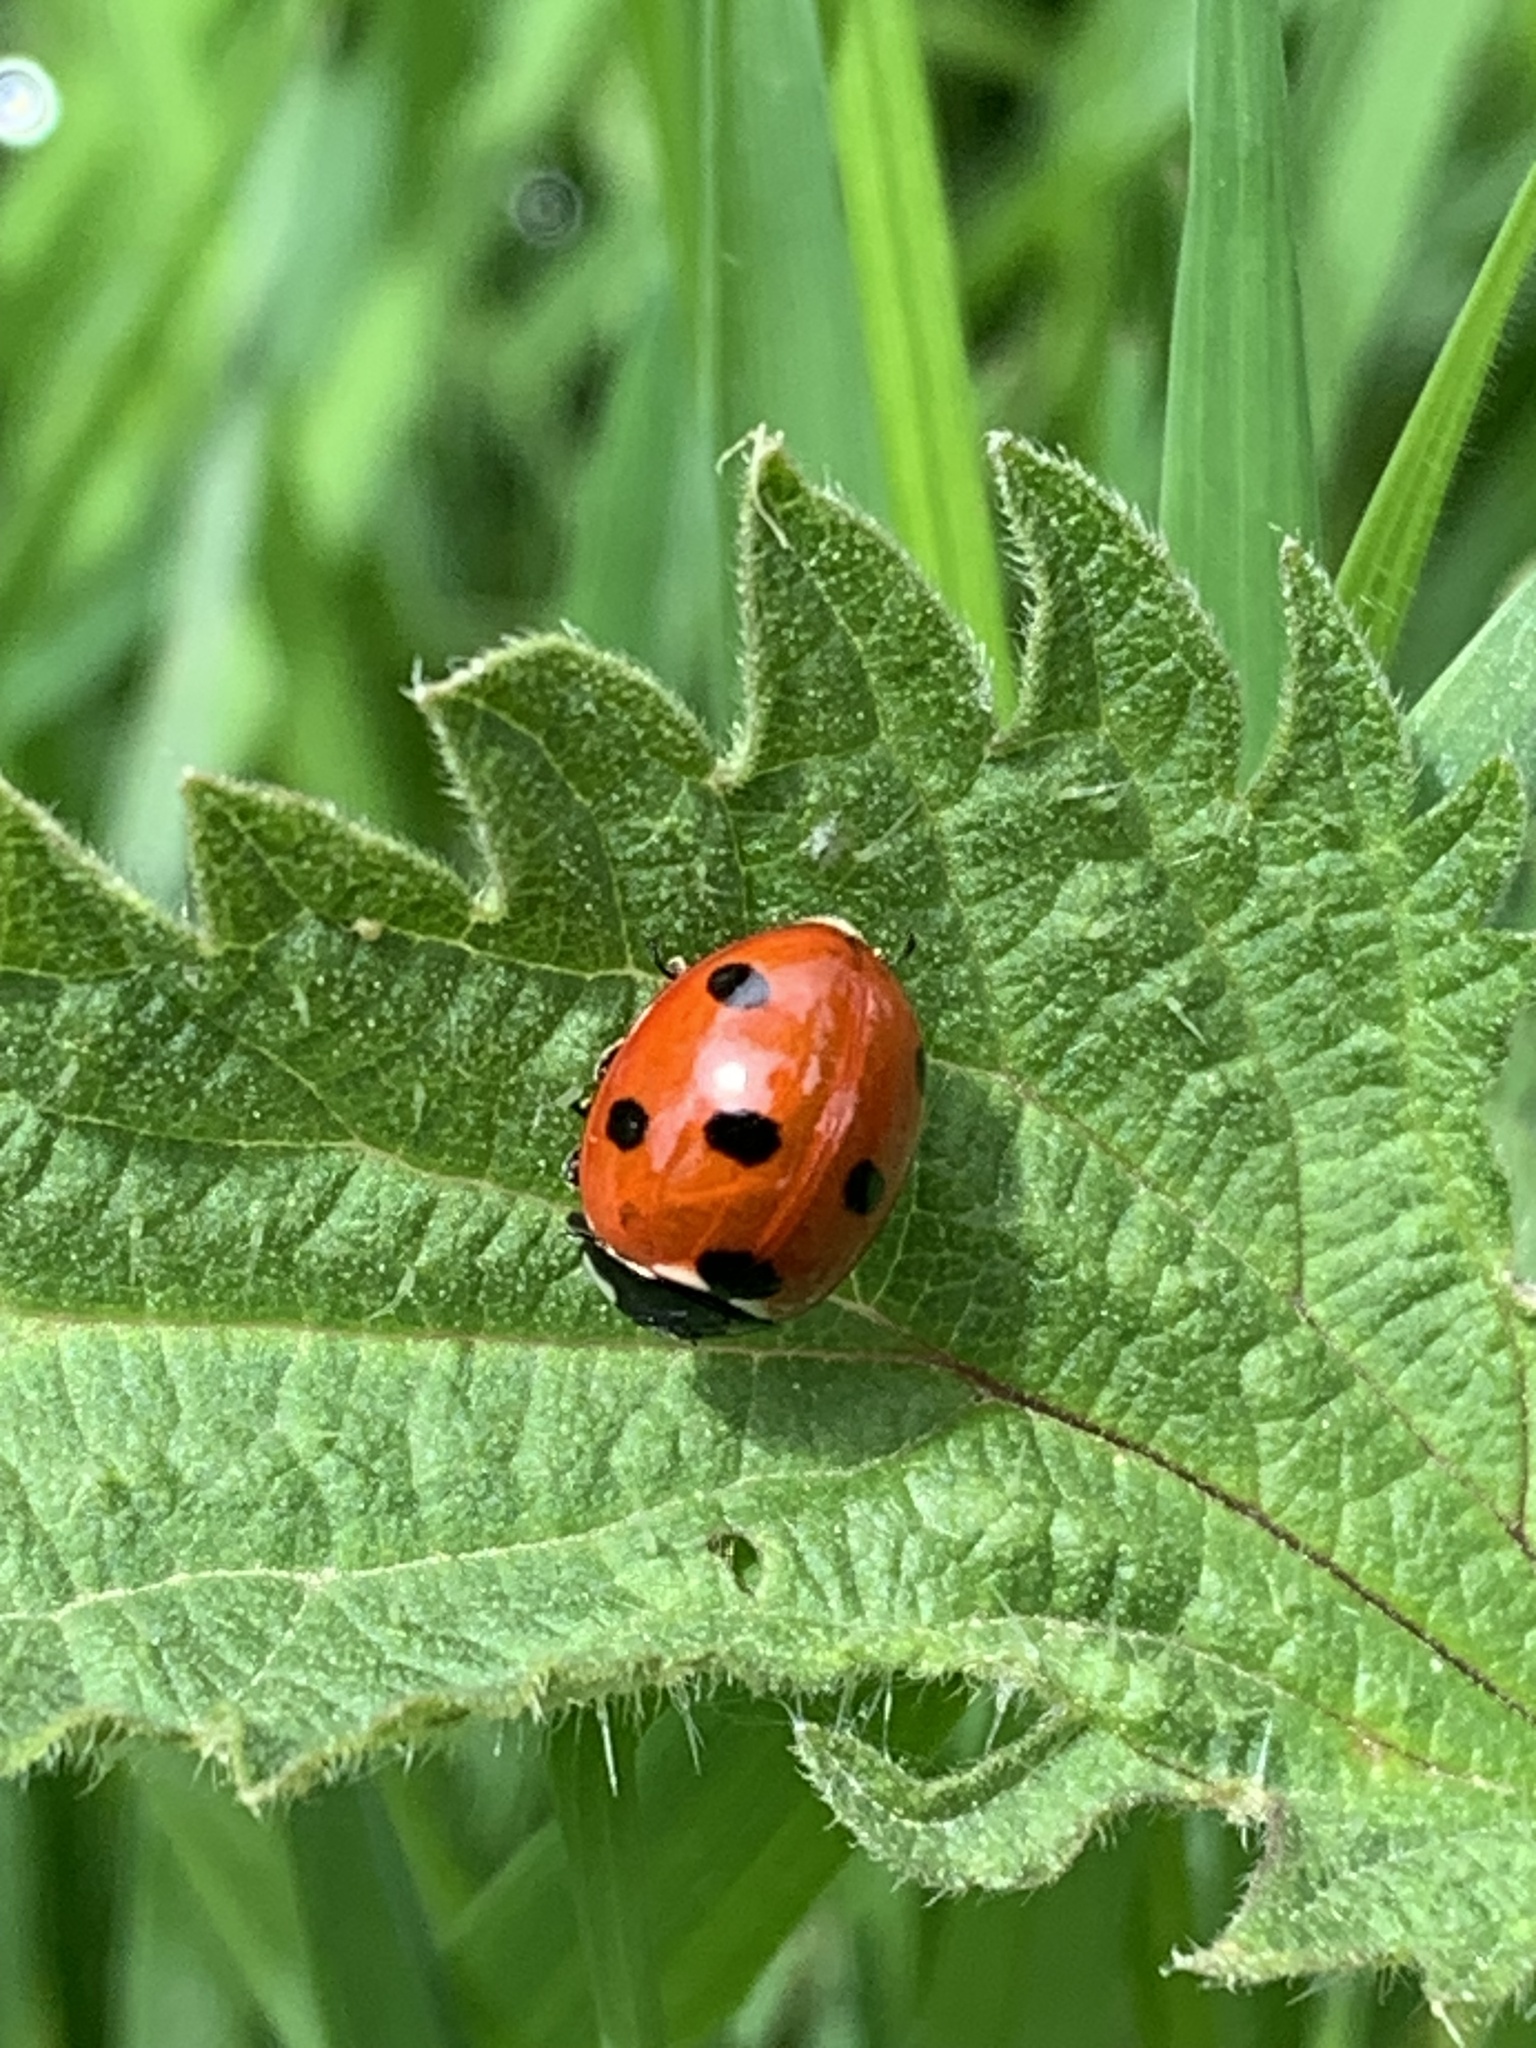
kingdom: Animalia
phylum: Arthropoda
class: Insecta
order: Coleoptera
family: Coccinellidae
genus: Coccinella
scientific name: Coccinella septempunctata
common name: Sevenspotted lady beetle
